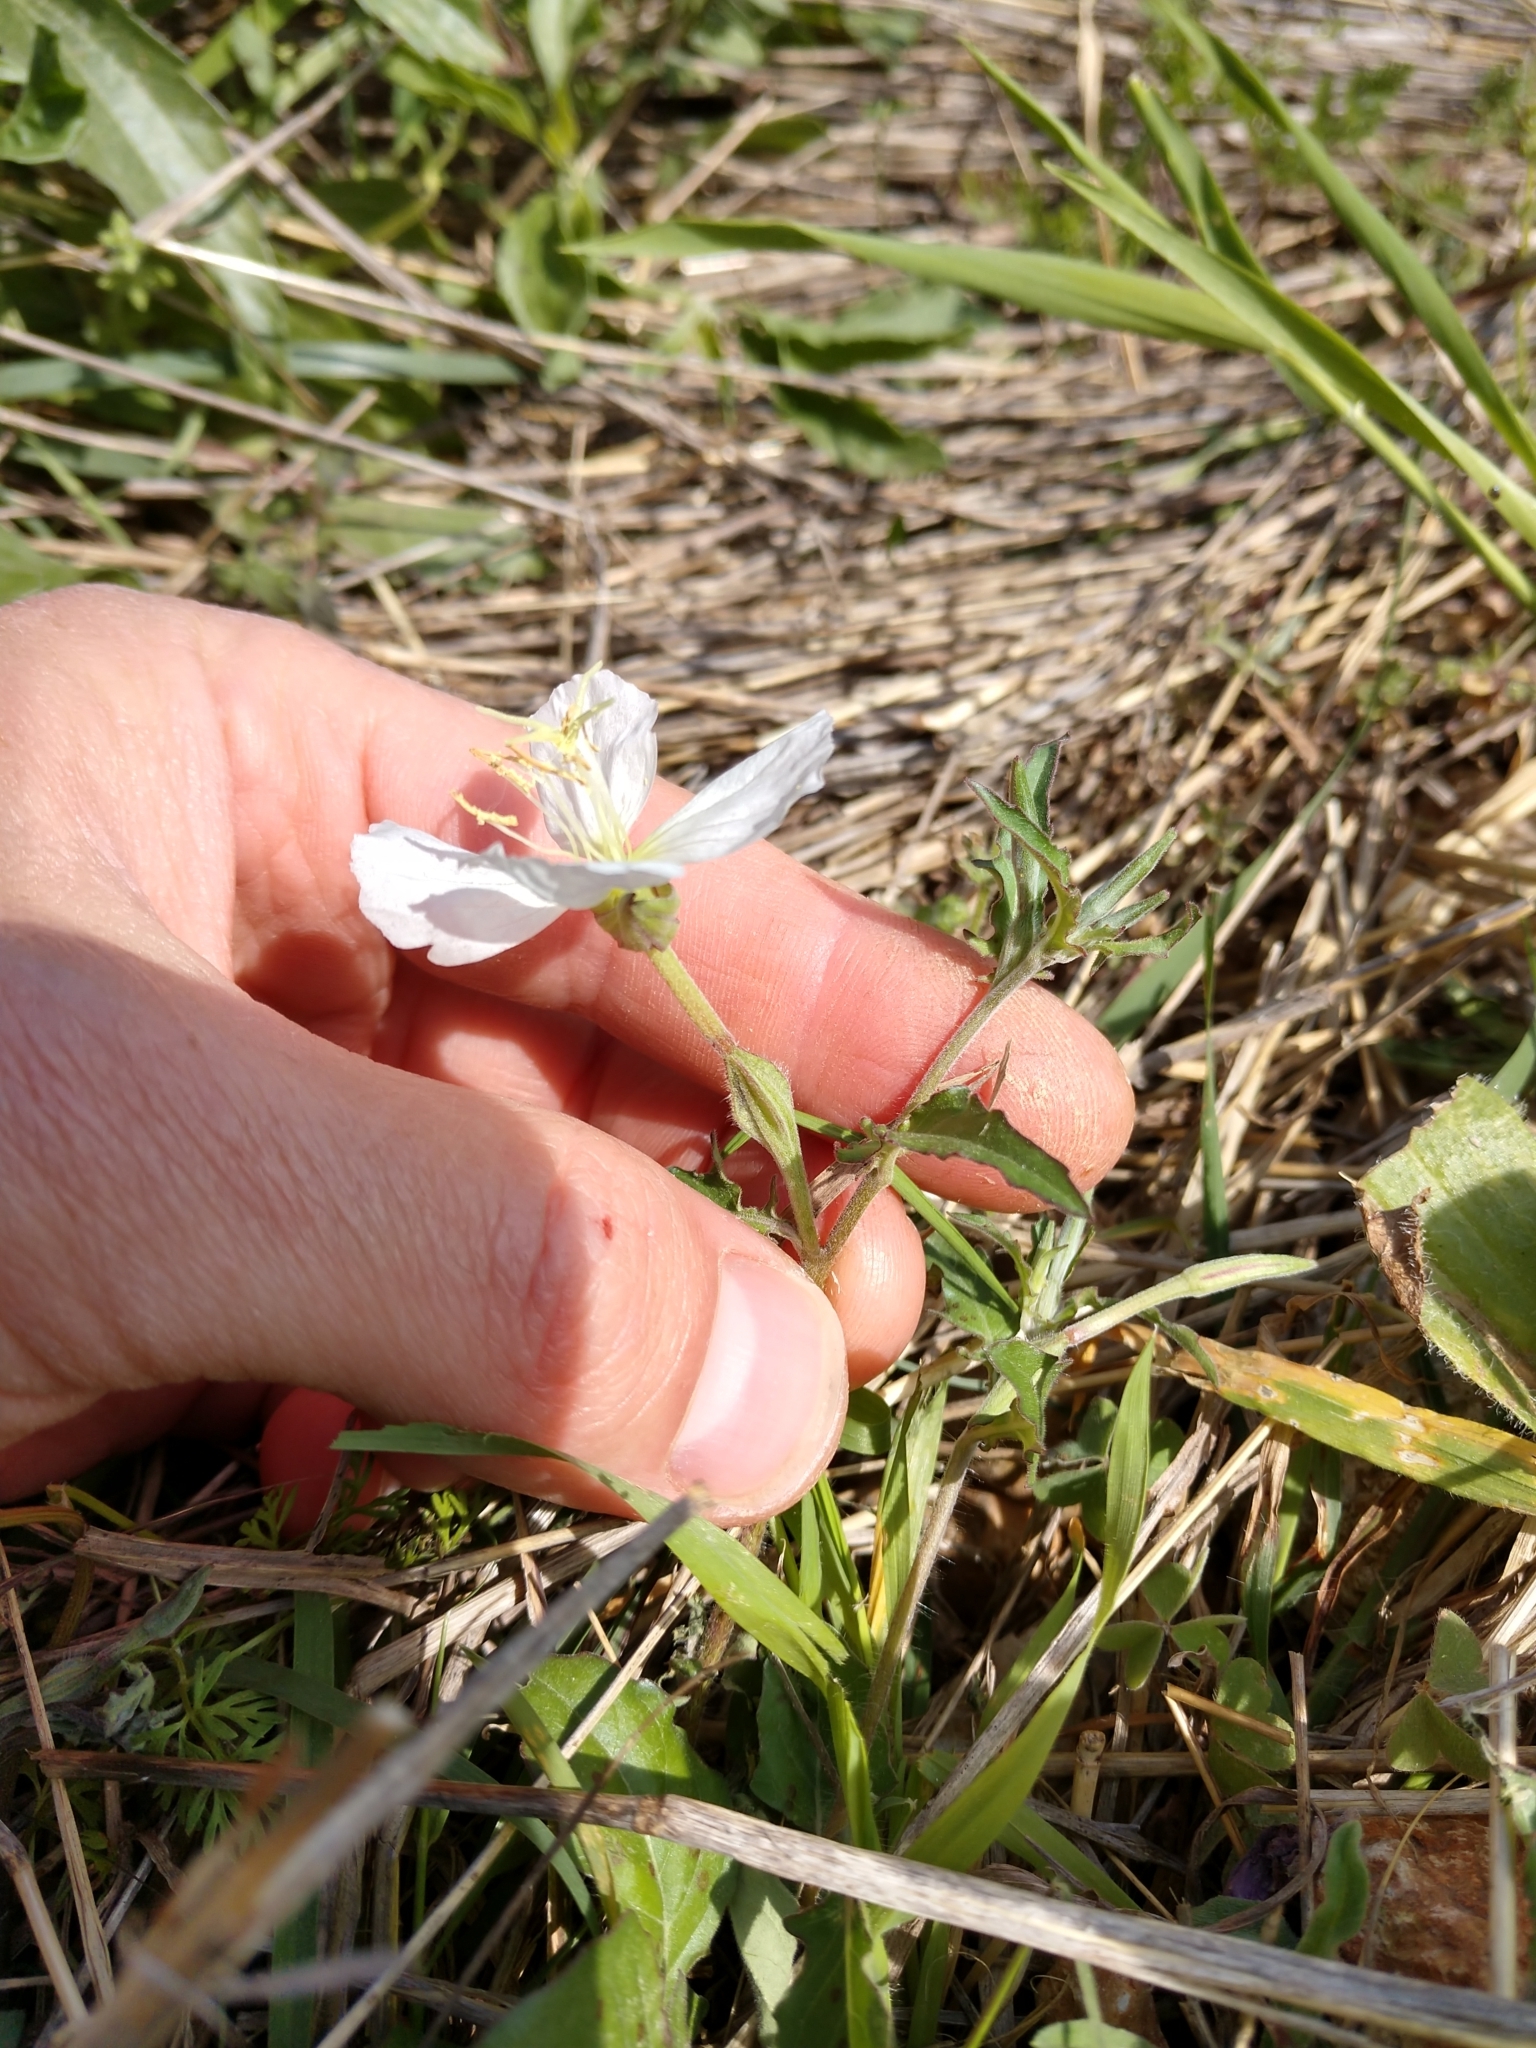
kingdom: Plantae
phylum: Tracheophyta
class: Magnoliopsida
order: Myrtales
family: Onagraceae
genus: Oenothera
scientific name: Oenothera tetraptera
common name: Four-wing evening-primrose
